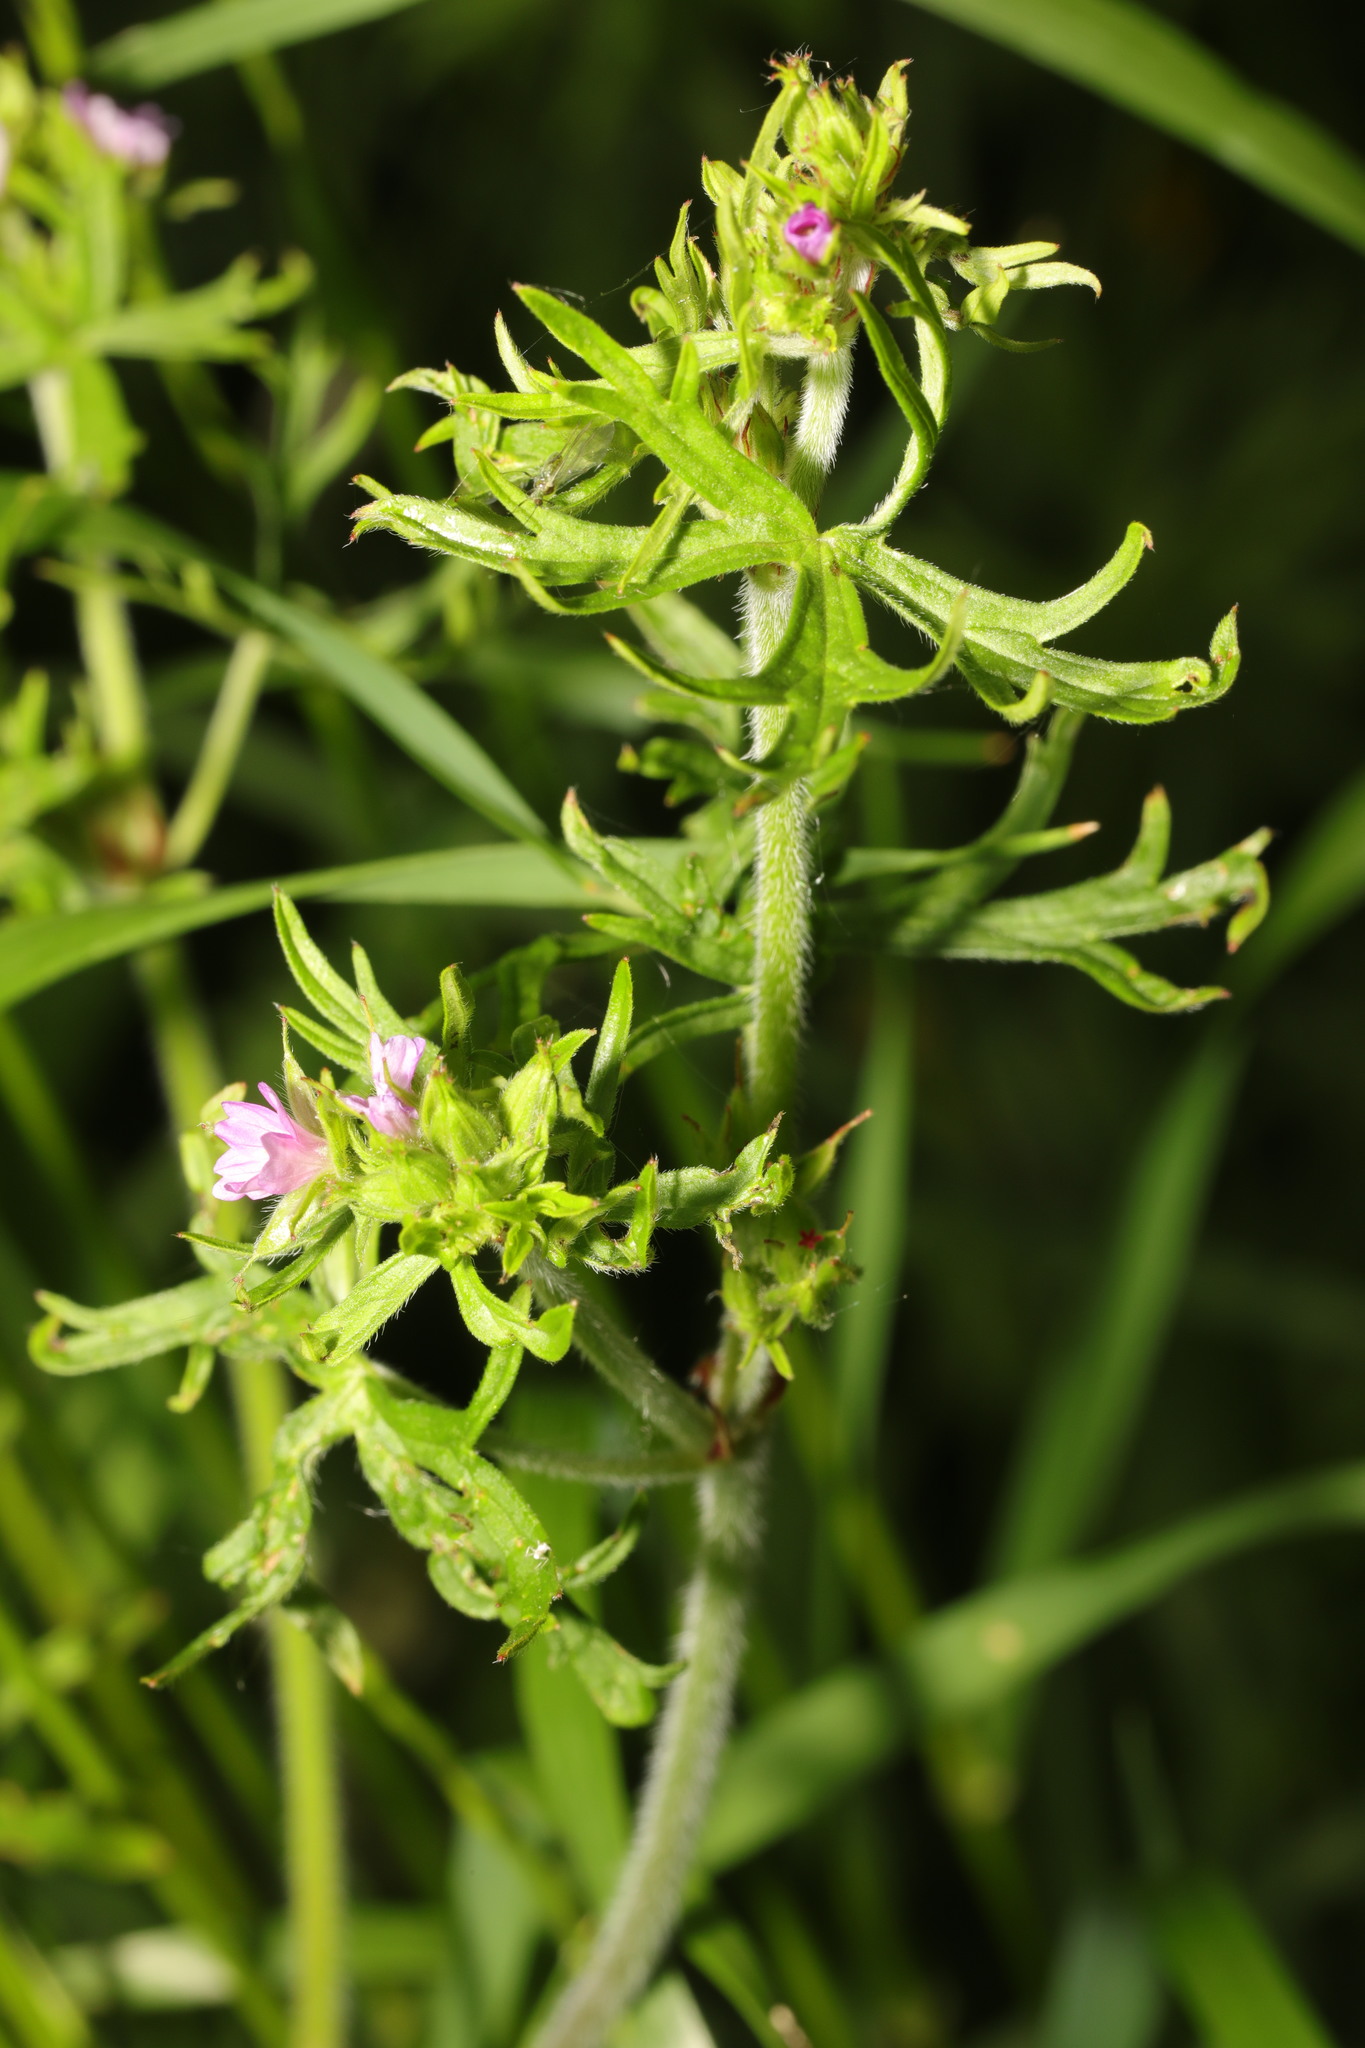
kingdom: Plantae
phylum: Tracheophyta
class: Magnoliopsida
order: Geraniales
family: Geraniaceae
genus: Geranium
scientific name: Geranium dissectum
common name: Cut-leaved crane's-bill
